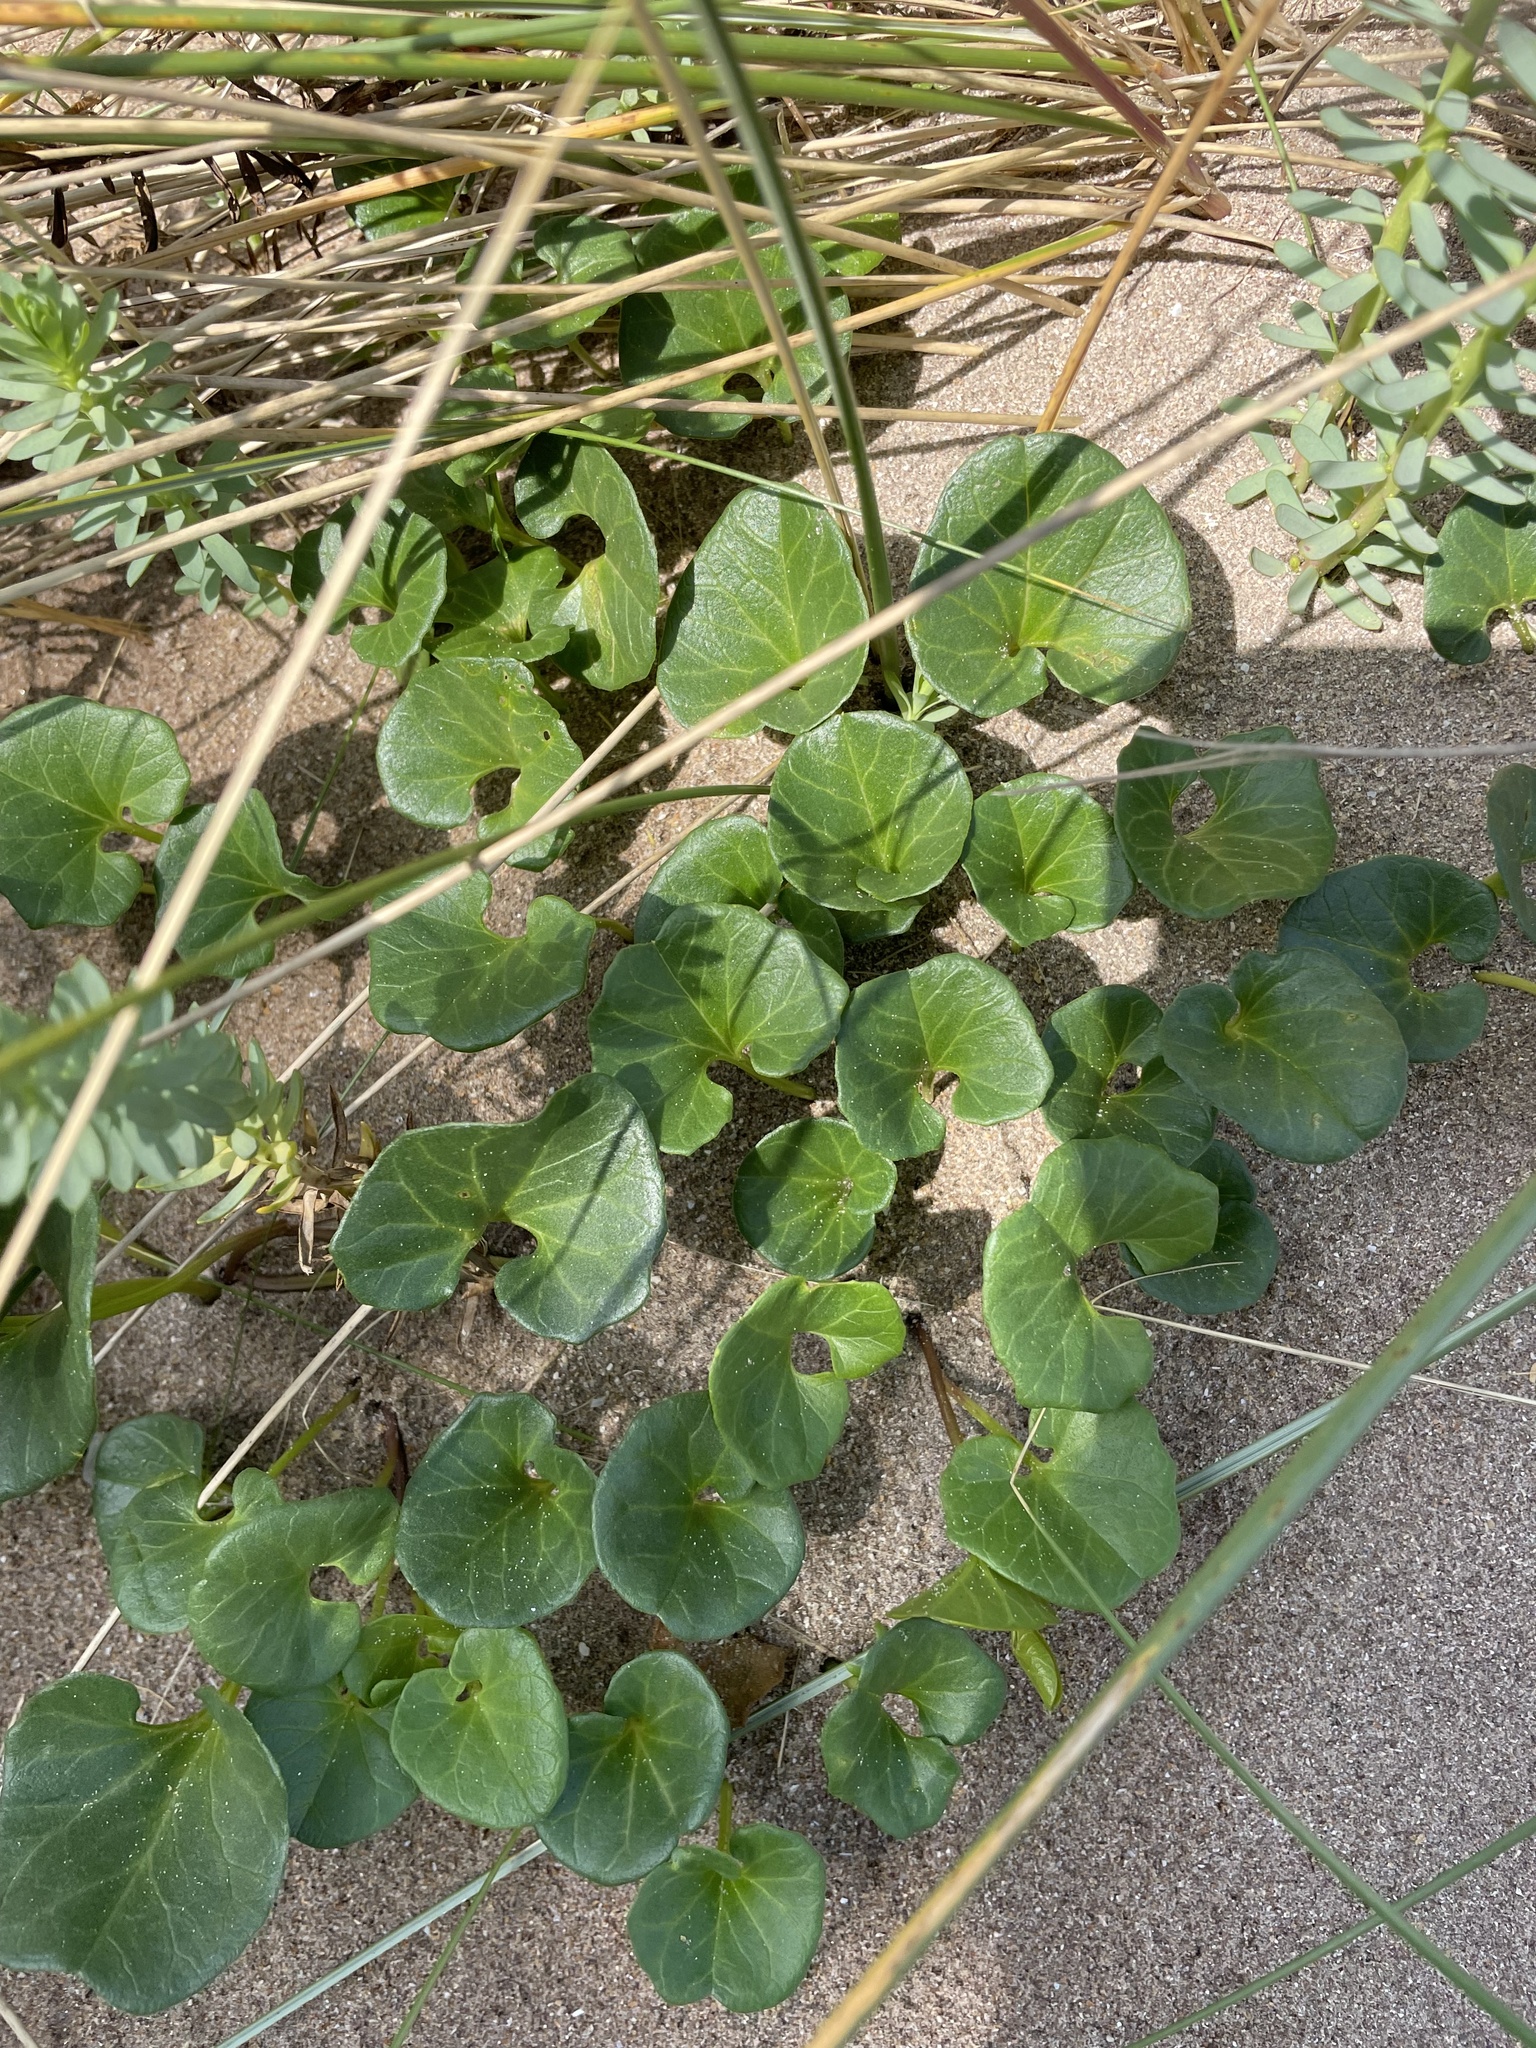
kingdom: Plantae
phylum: Tracheophyta
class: Magnoliopsida
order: Solanales
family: Convolvulaceae
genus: Calystegia
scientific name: Calystegia soldanella
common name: Sea bindweed
